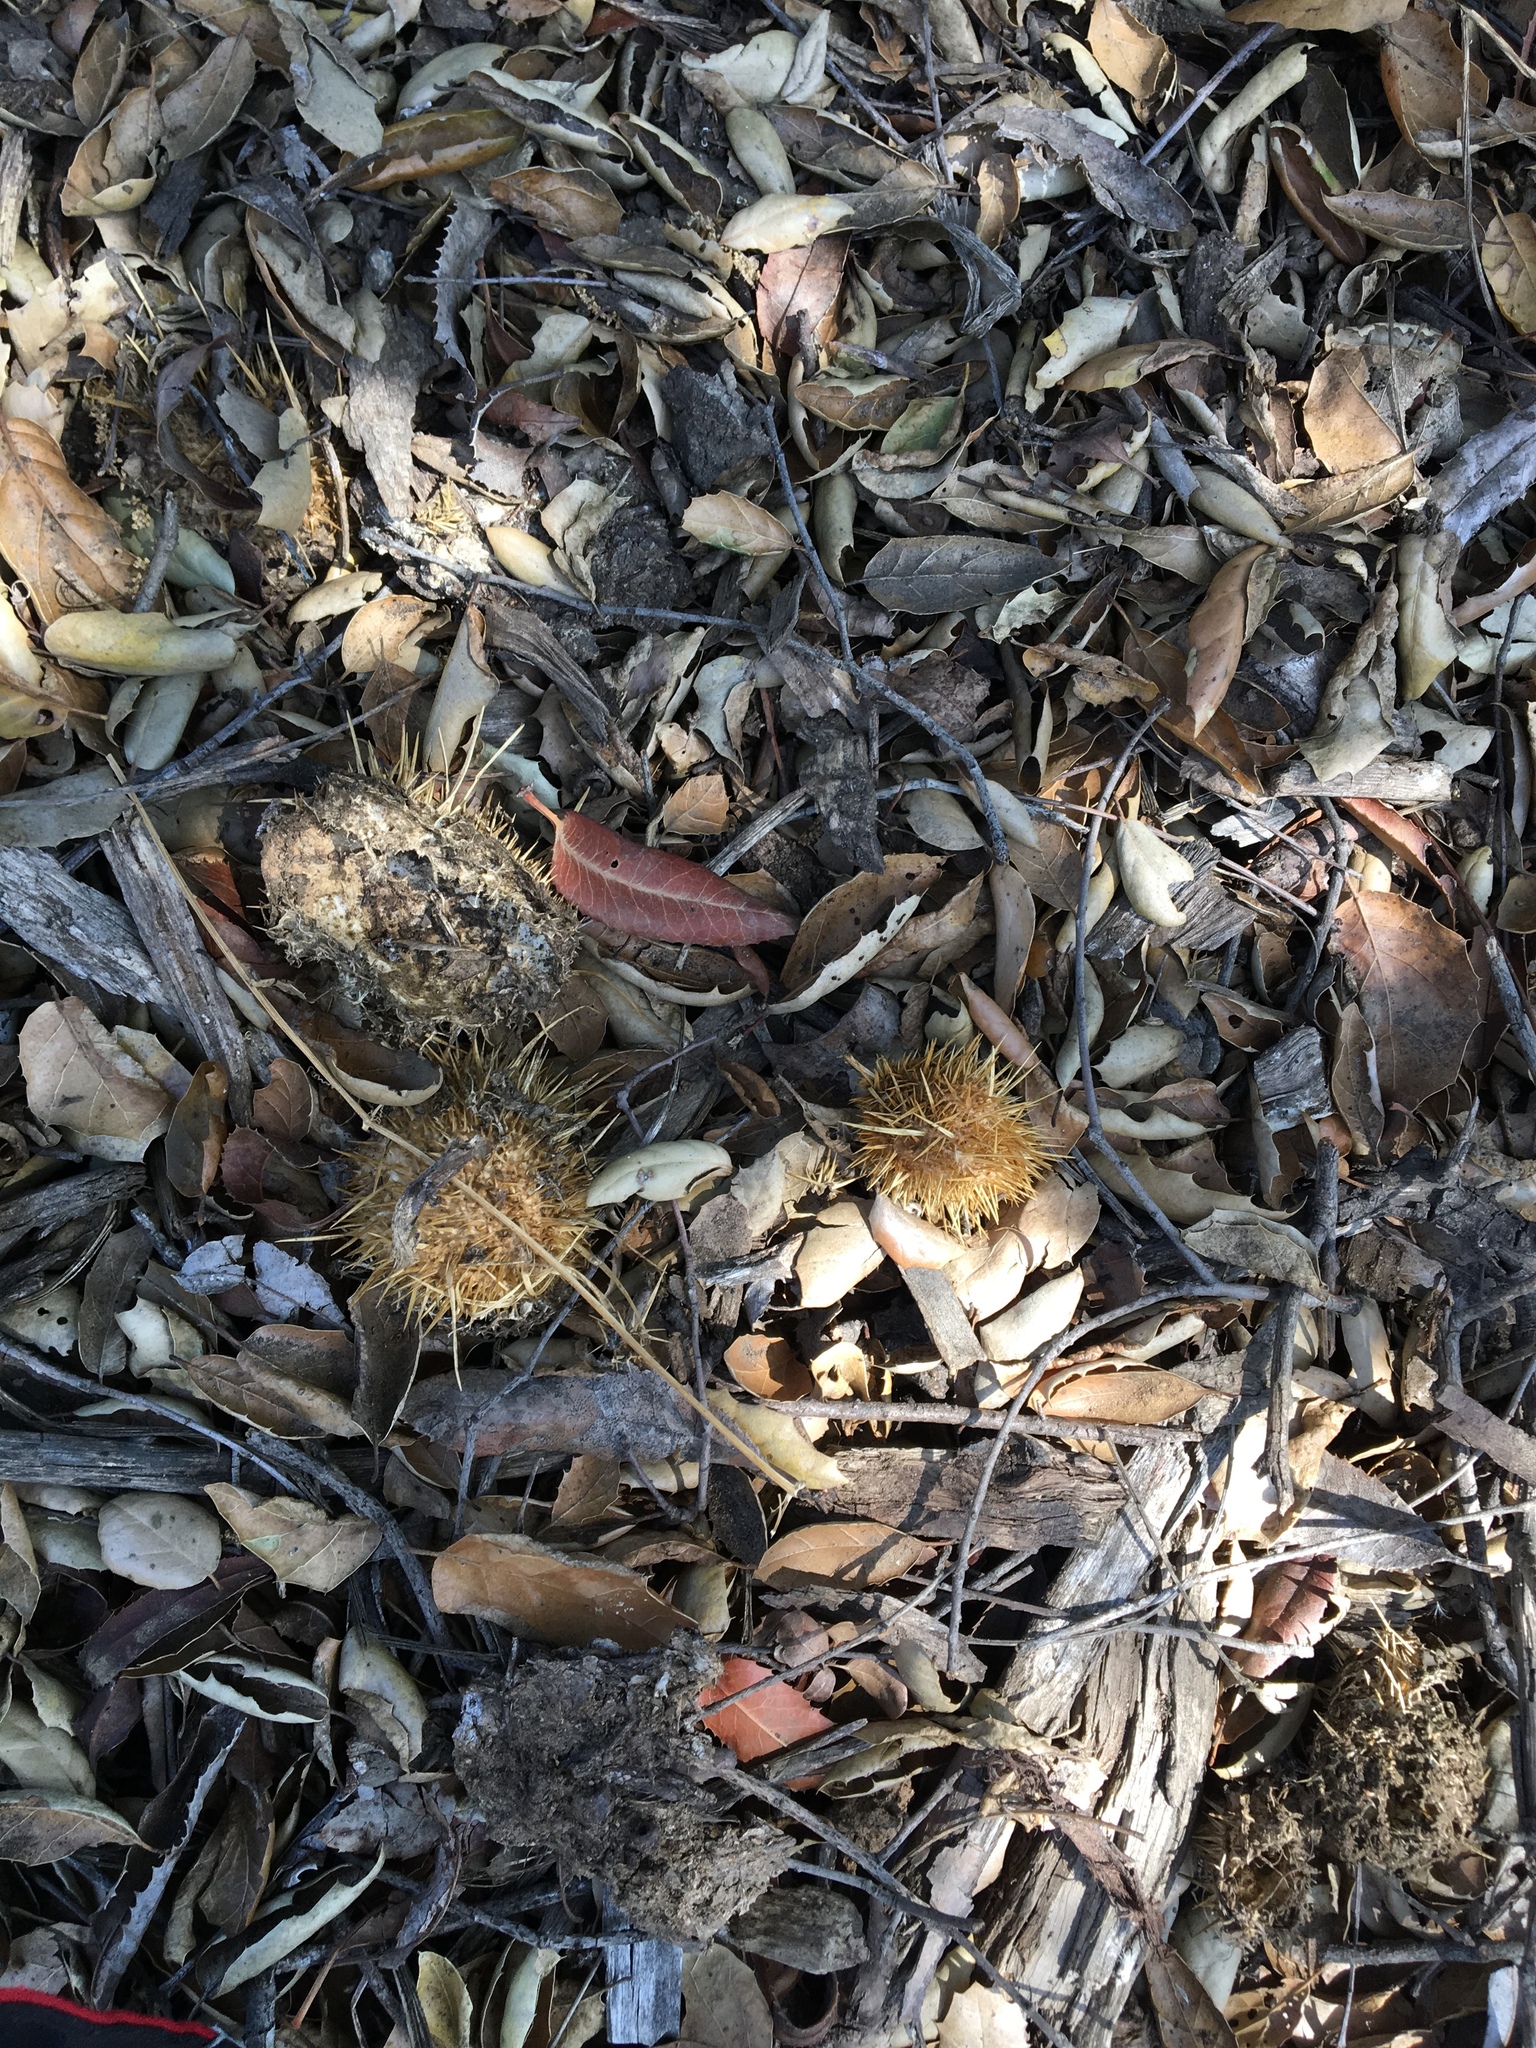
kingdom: Plantae
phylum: Tracheophyta
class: Magnoliopsida
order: Cucurbitales
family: Cucurbitaceae
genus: Marah
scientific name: Marah macrocarpa
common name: Cucamonga manroot
